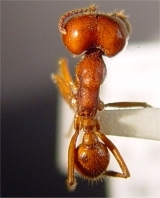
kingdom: Animalia
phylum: Arthropoda
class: Insecta
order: Hymenoptera
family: Formicidae
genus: Labidus
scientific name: Labidus coecus
